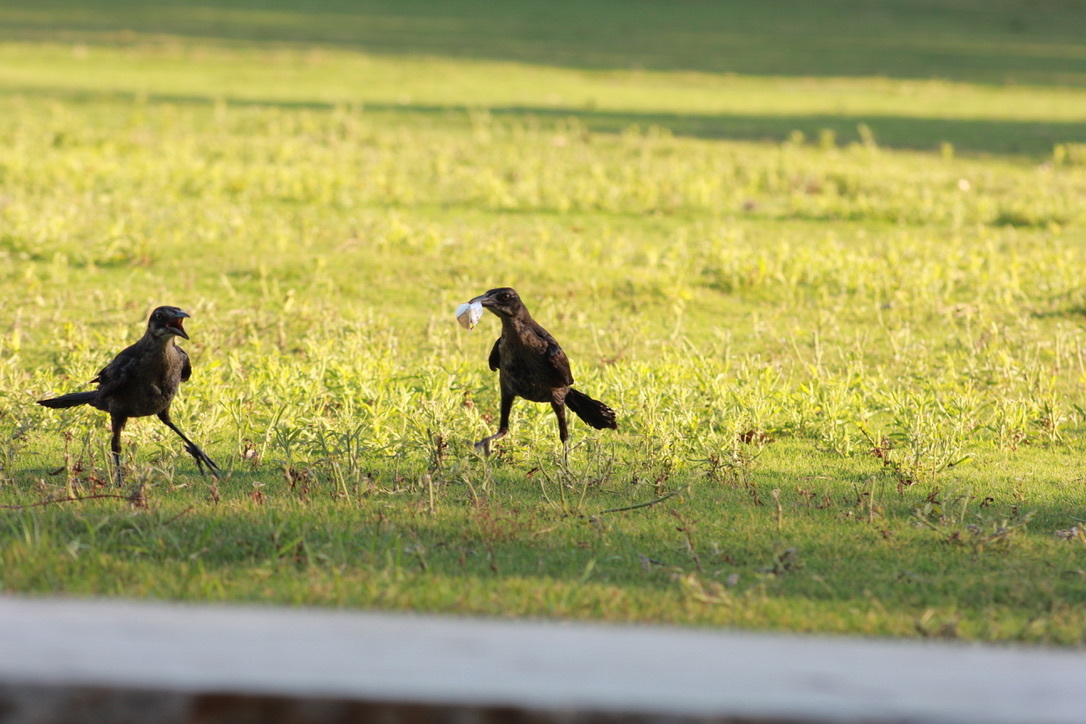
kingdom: Animalia
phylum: Chordata
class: Aves
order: Passeriformes
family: Icteridae
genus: Quiscalus
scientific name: Quiscalus mexicanus
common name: Great-tailed grackle
